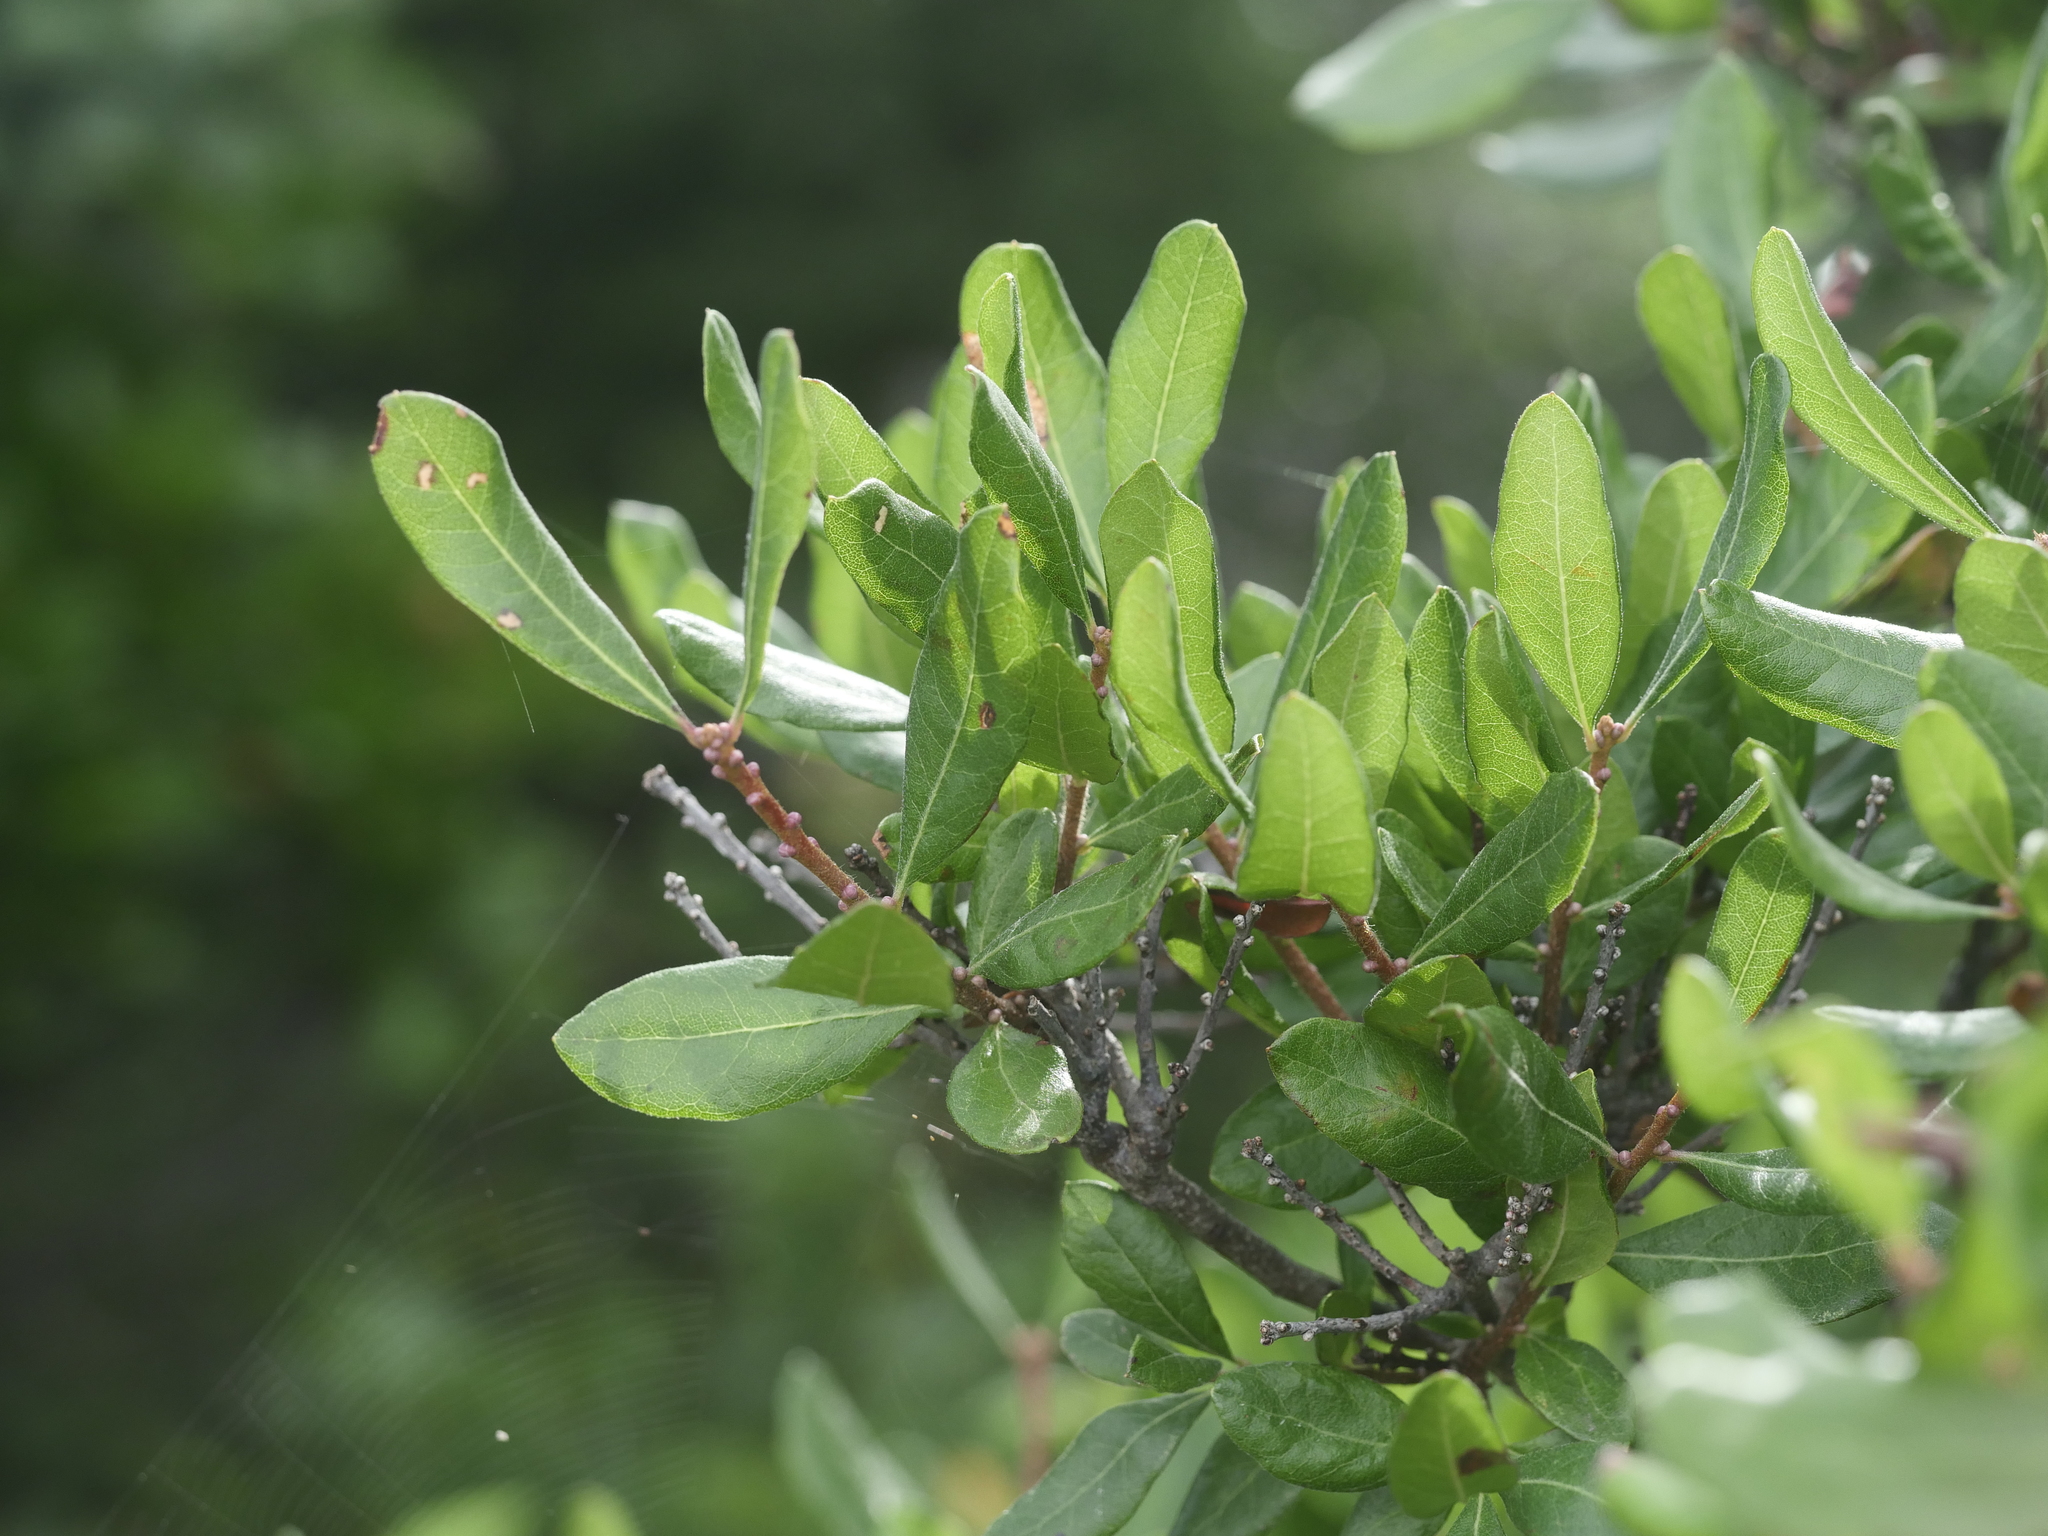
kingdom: Plantae
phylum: Tracheophyta
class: Magnoliopsida
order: Fagales
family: Myricaceae
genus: Morella
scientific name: Morella pensylvanica
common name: Northern bayberry
